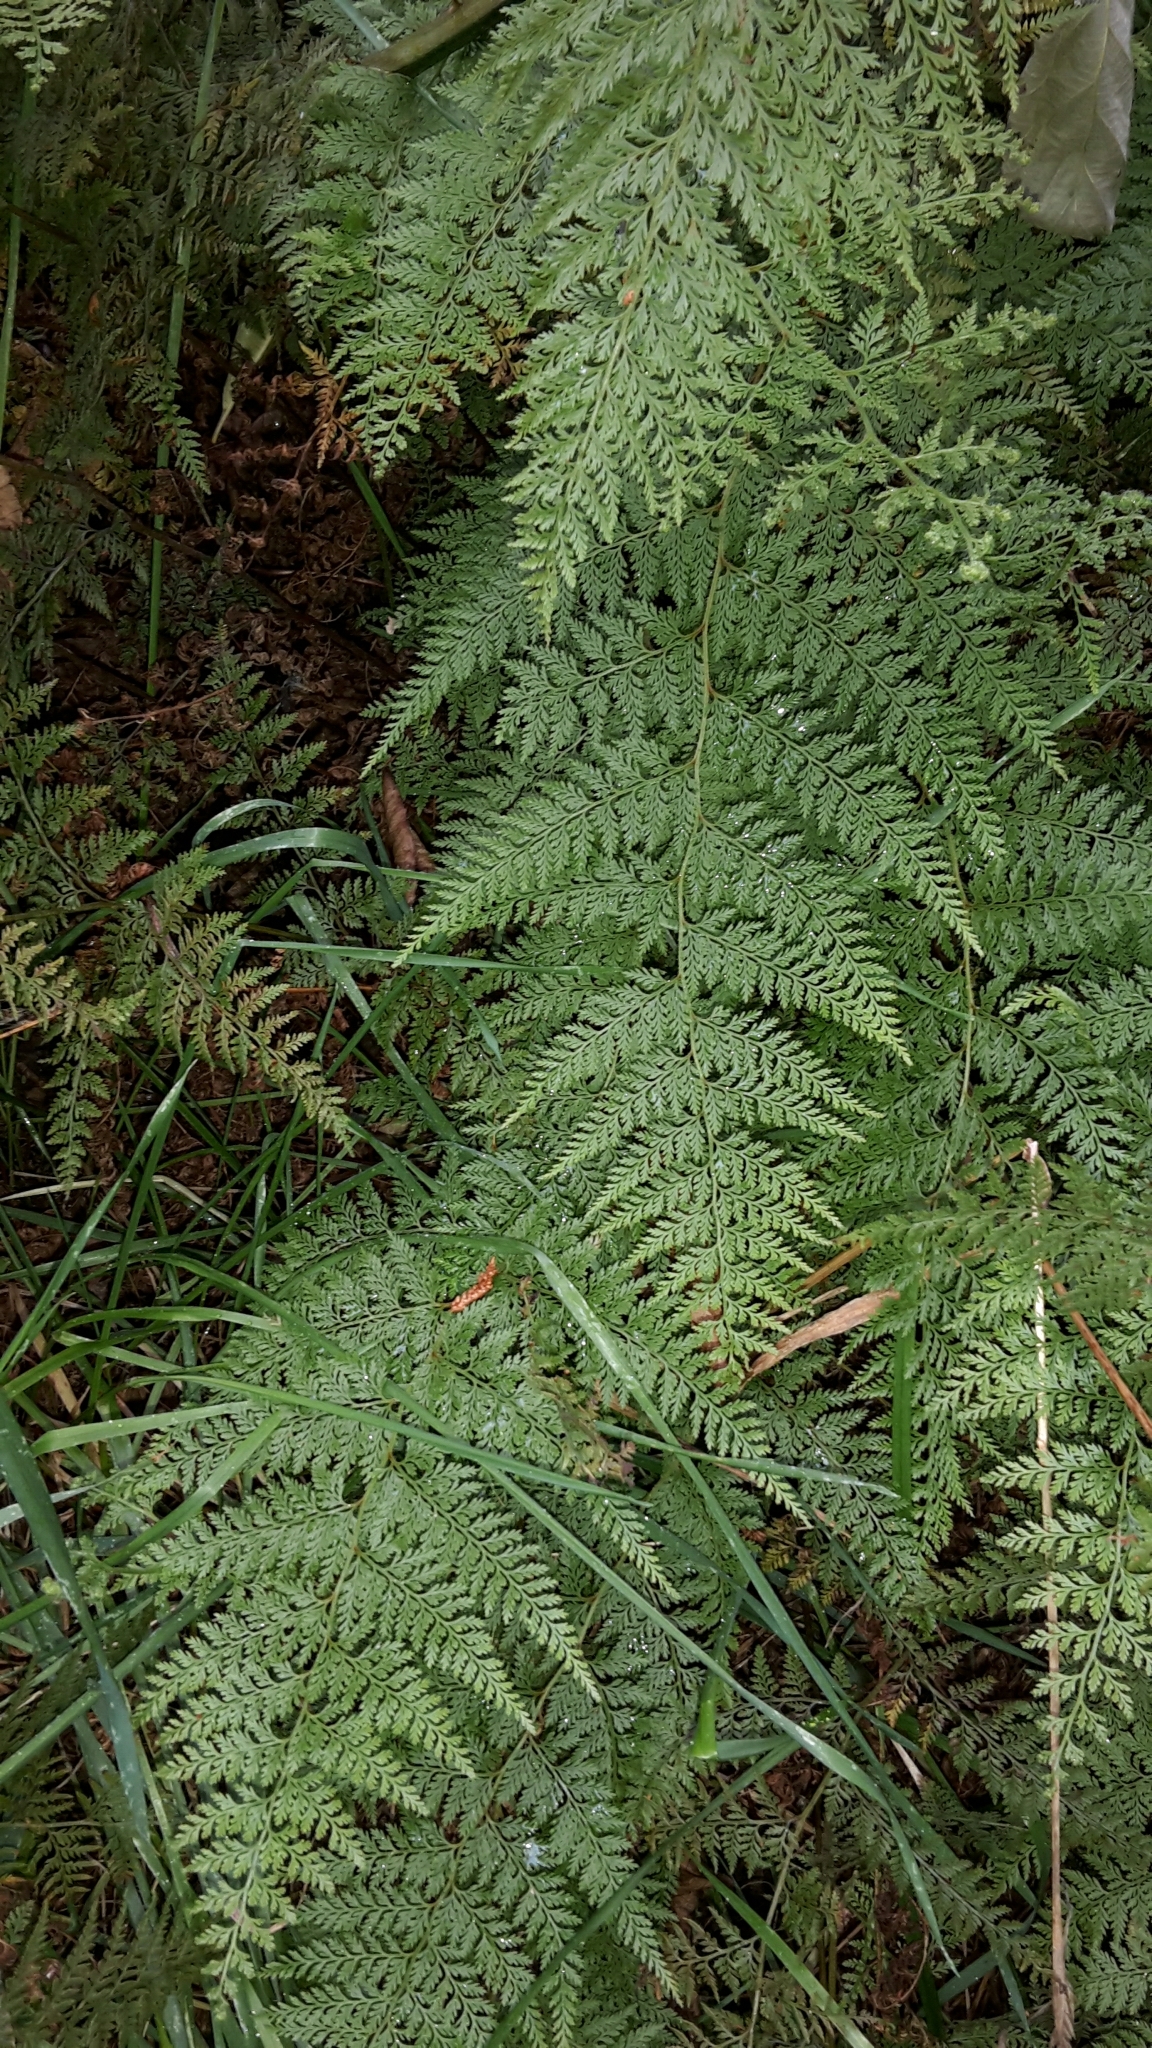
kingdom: Plantae
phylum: Tracheophyta
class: Polypodiopsida
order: Polypodiales
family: Dennstaedtiaceae
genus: Paesia
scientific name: Paesia scaberula
